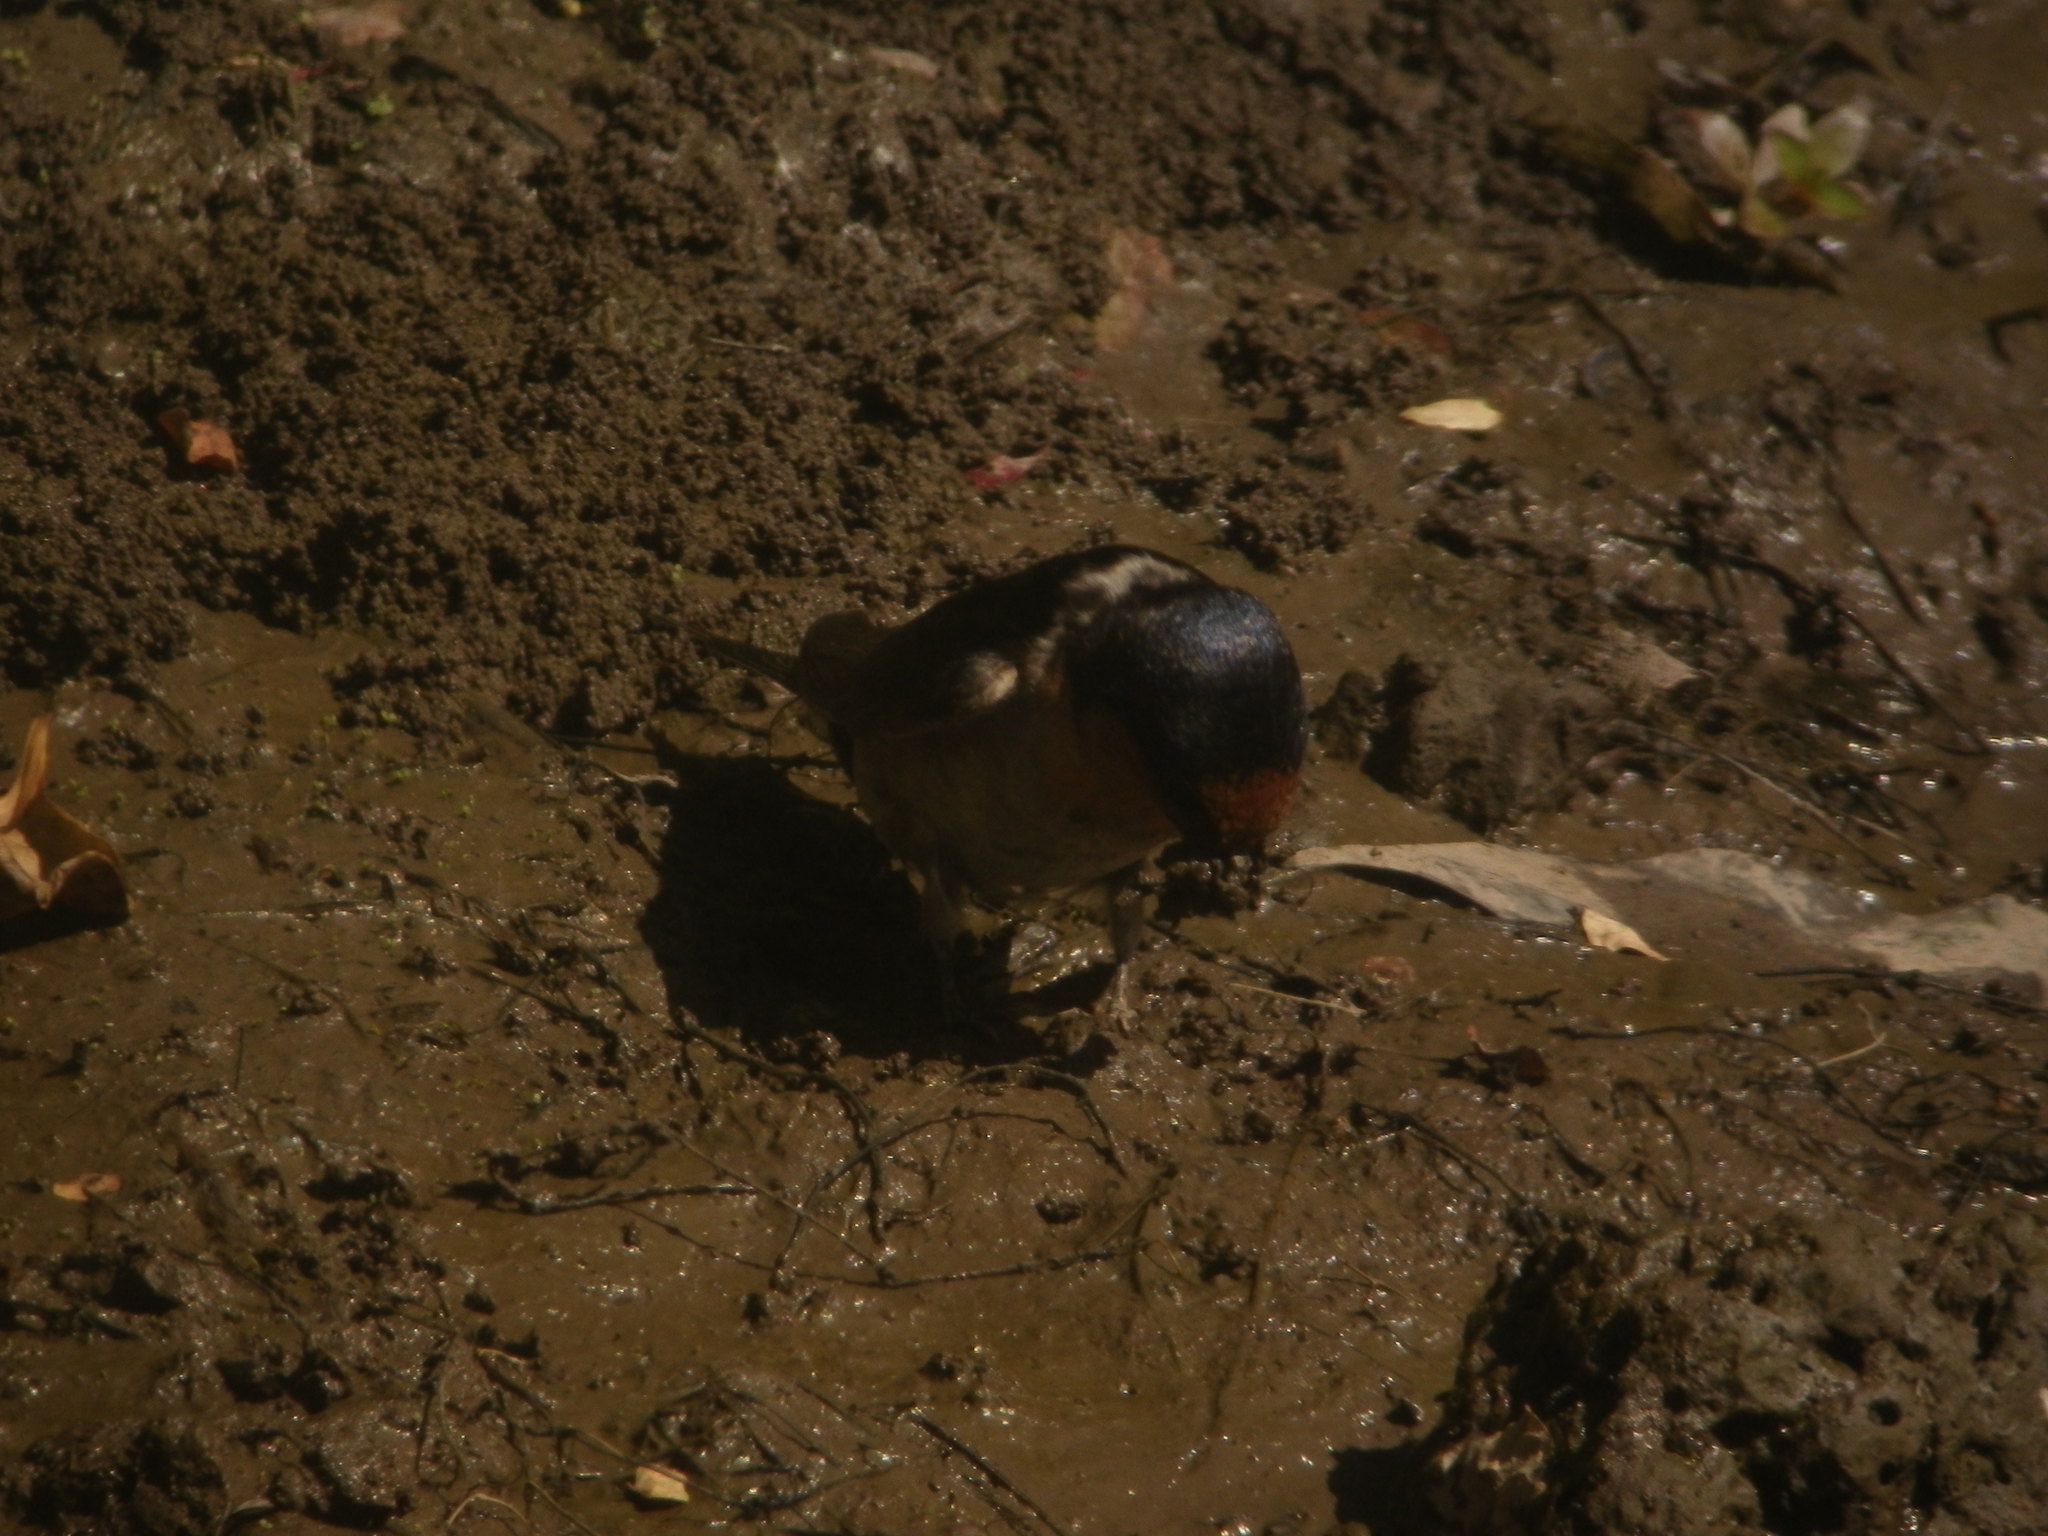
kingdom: Animalia
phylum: Chordata
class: Aves
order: Passeriformes
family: Hirundinidae
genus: Hirundo
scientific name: Hirundo neoxena
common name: Welcome swallow
